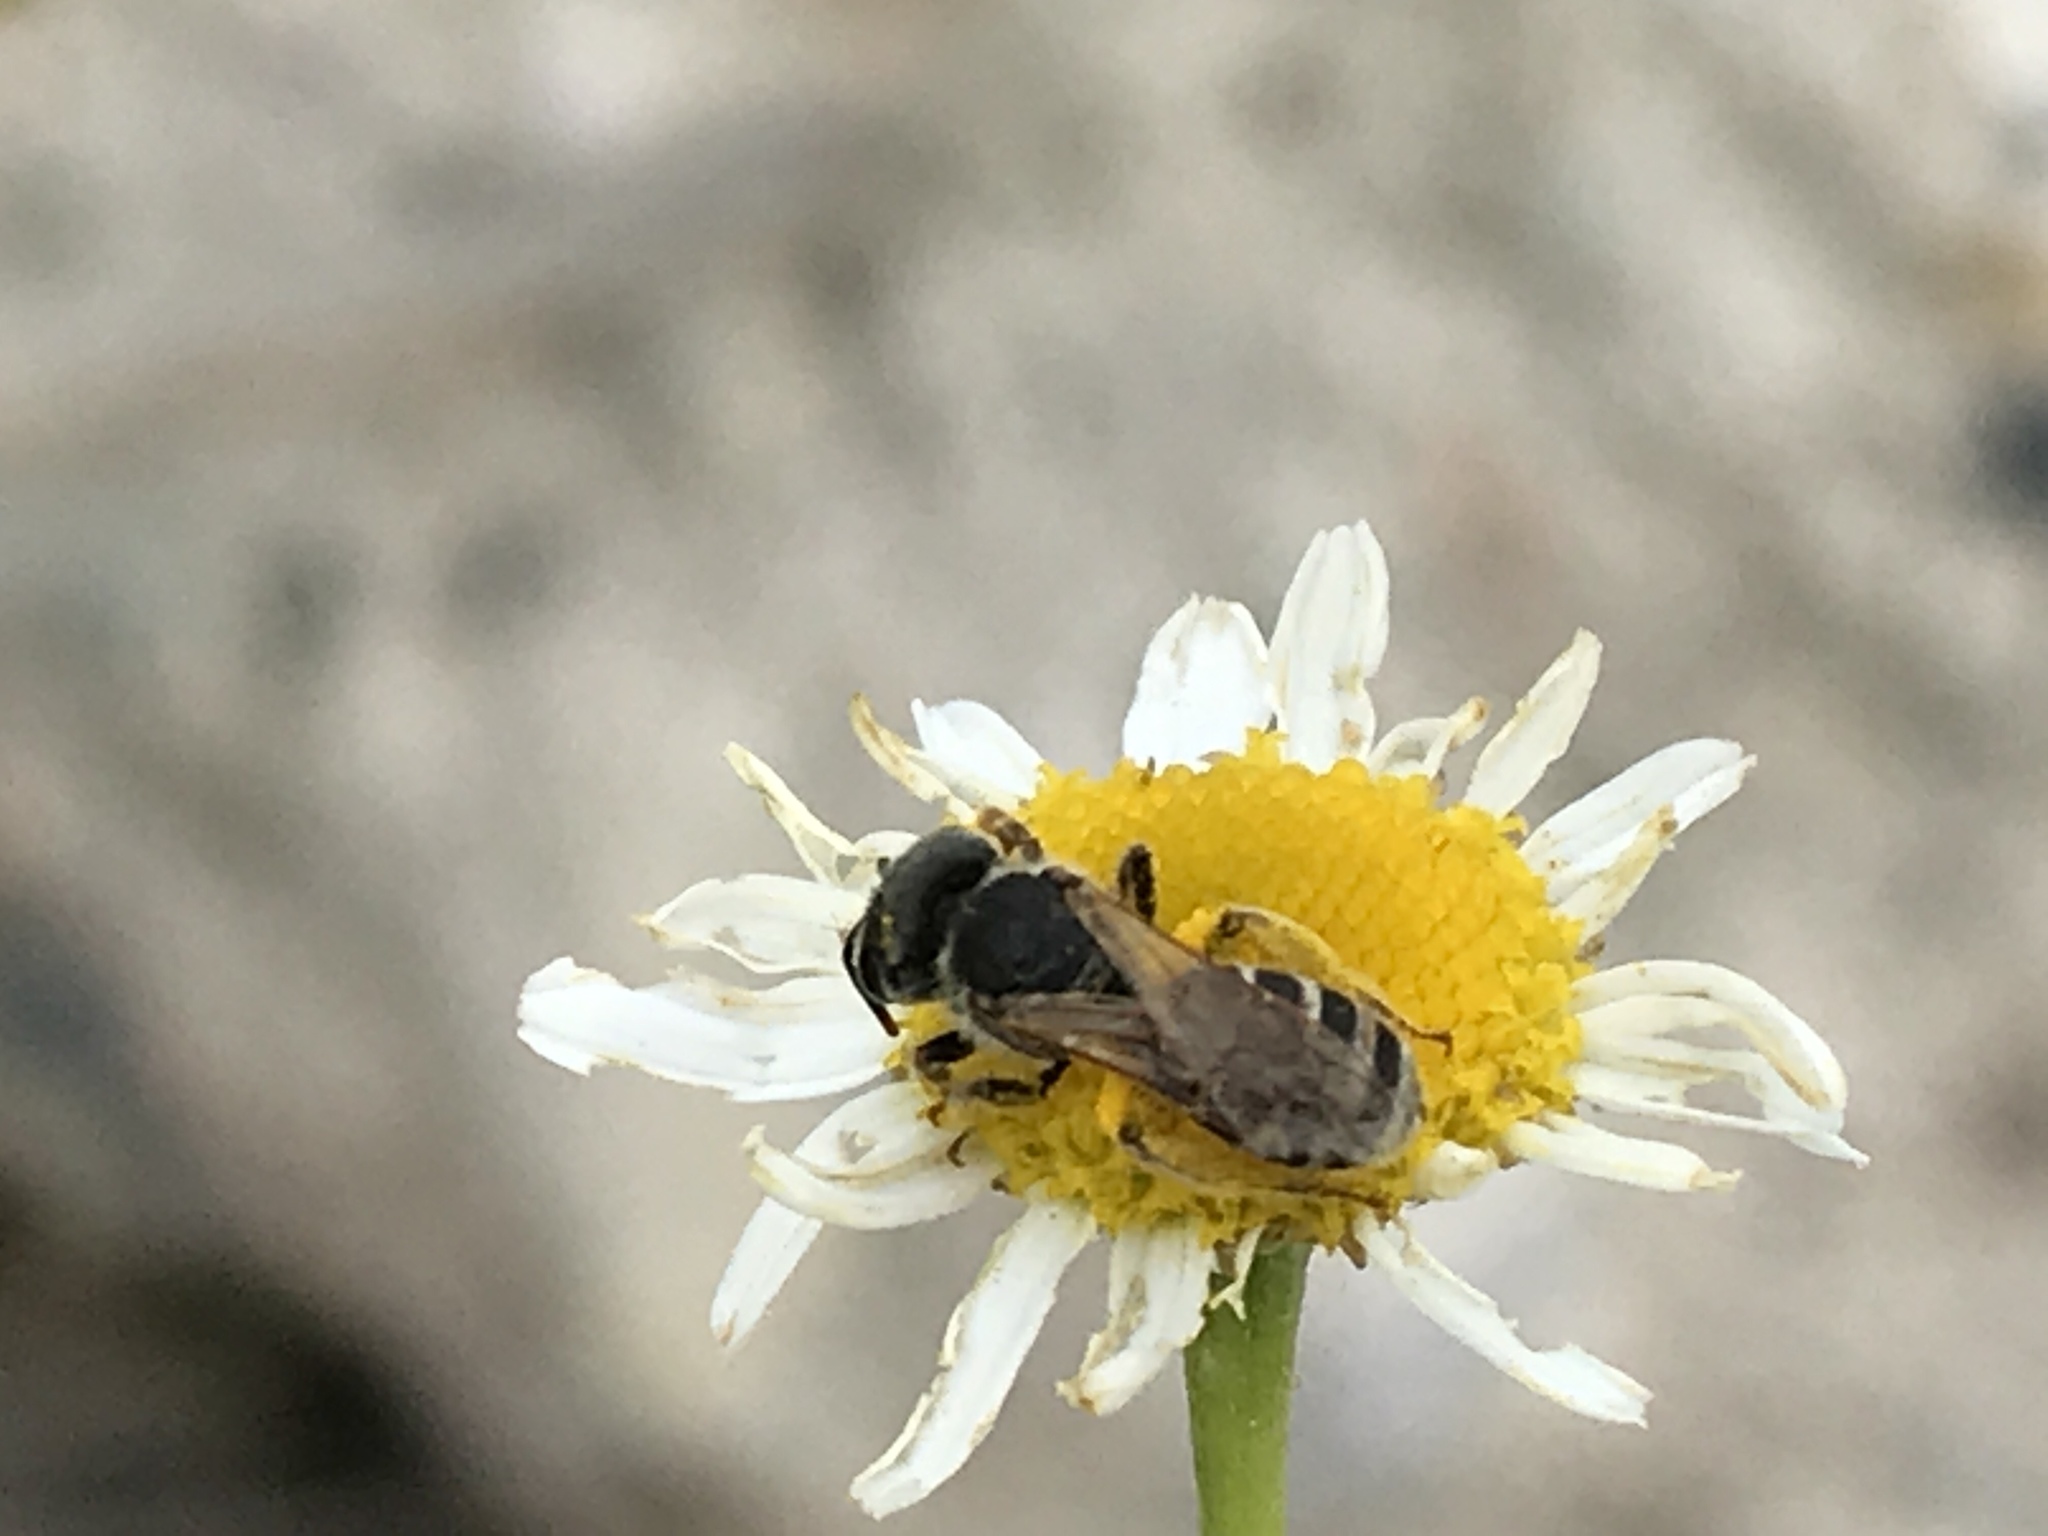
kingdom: Animalia
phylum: Arthropoda
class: Insecta
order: Hymenoptera
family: Halictidae
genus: Halictus
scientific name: Halictus ligatus
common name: Ligated furrow bee
